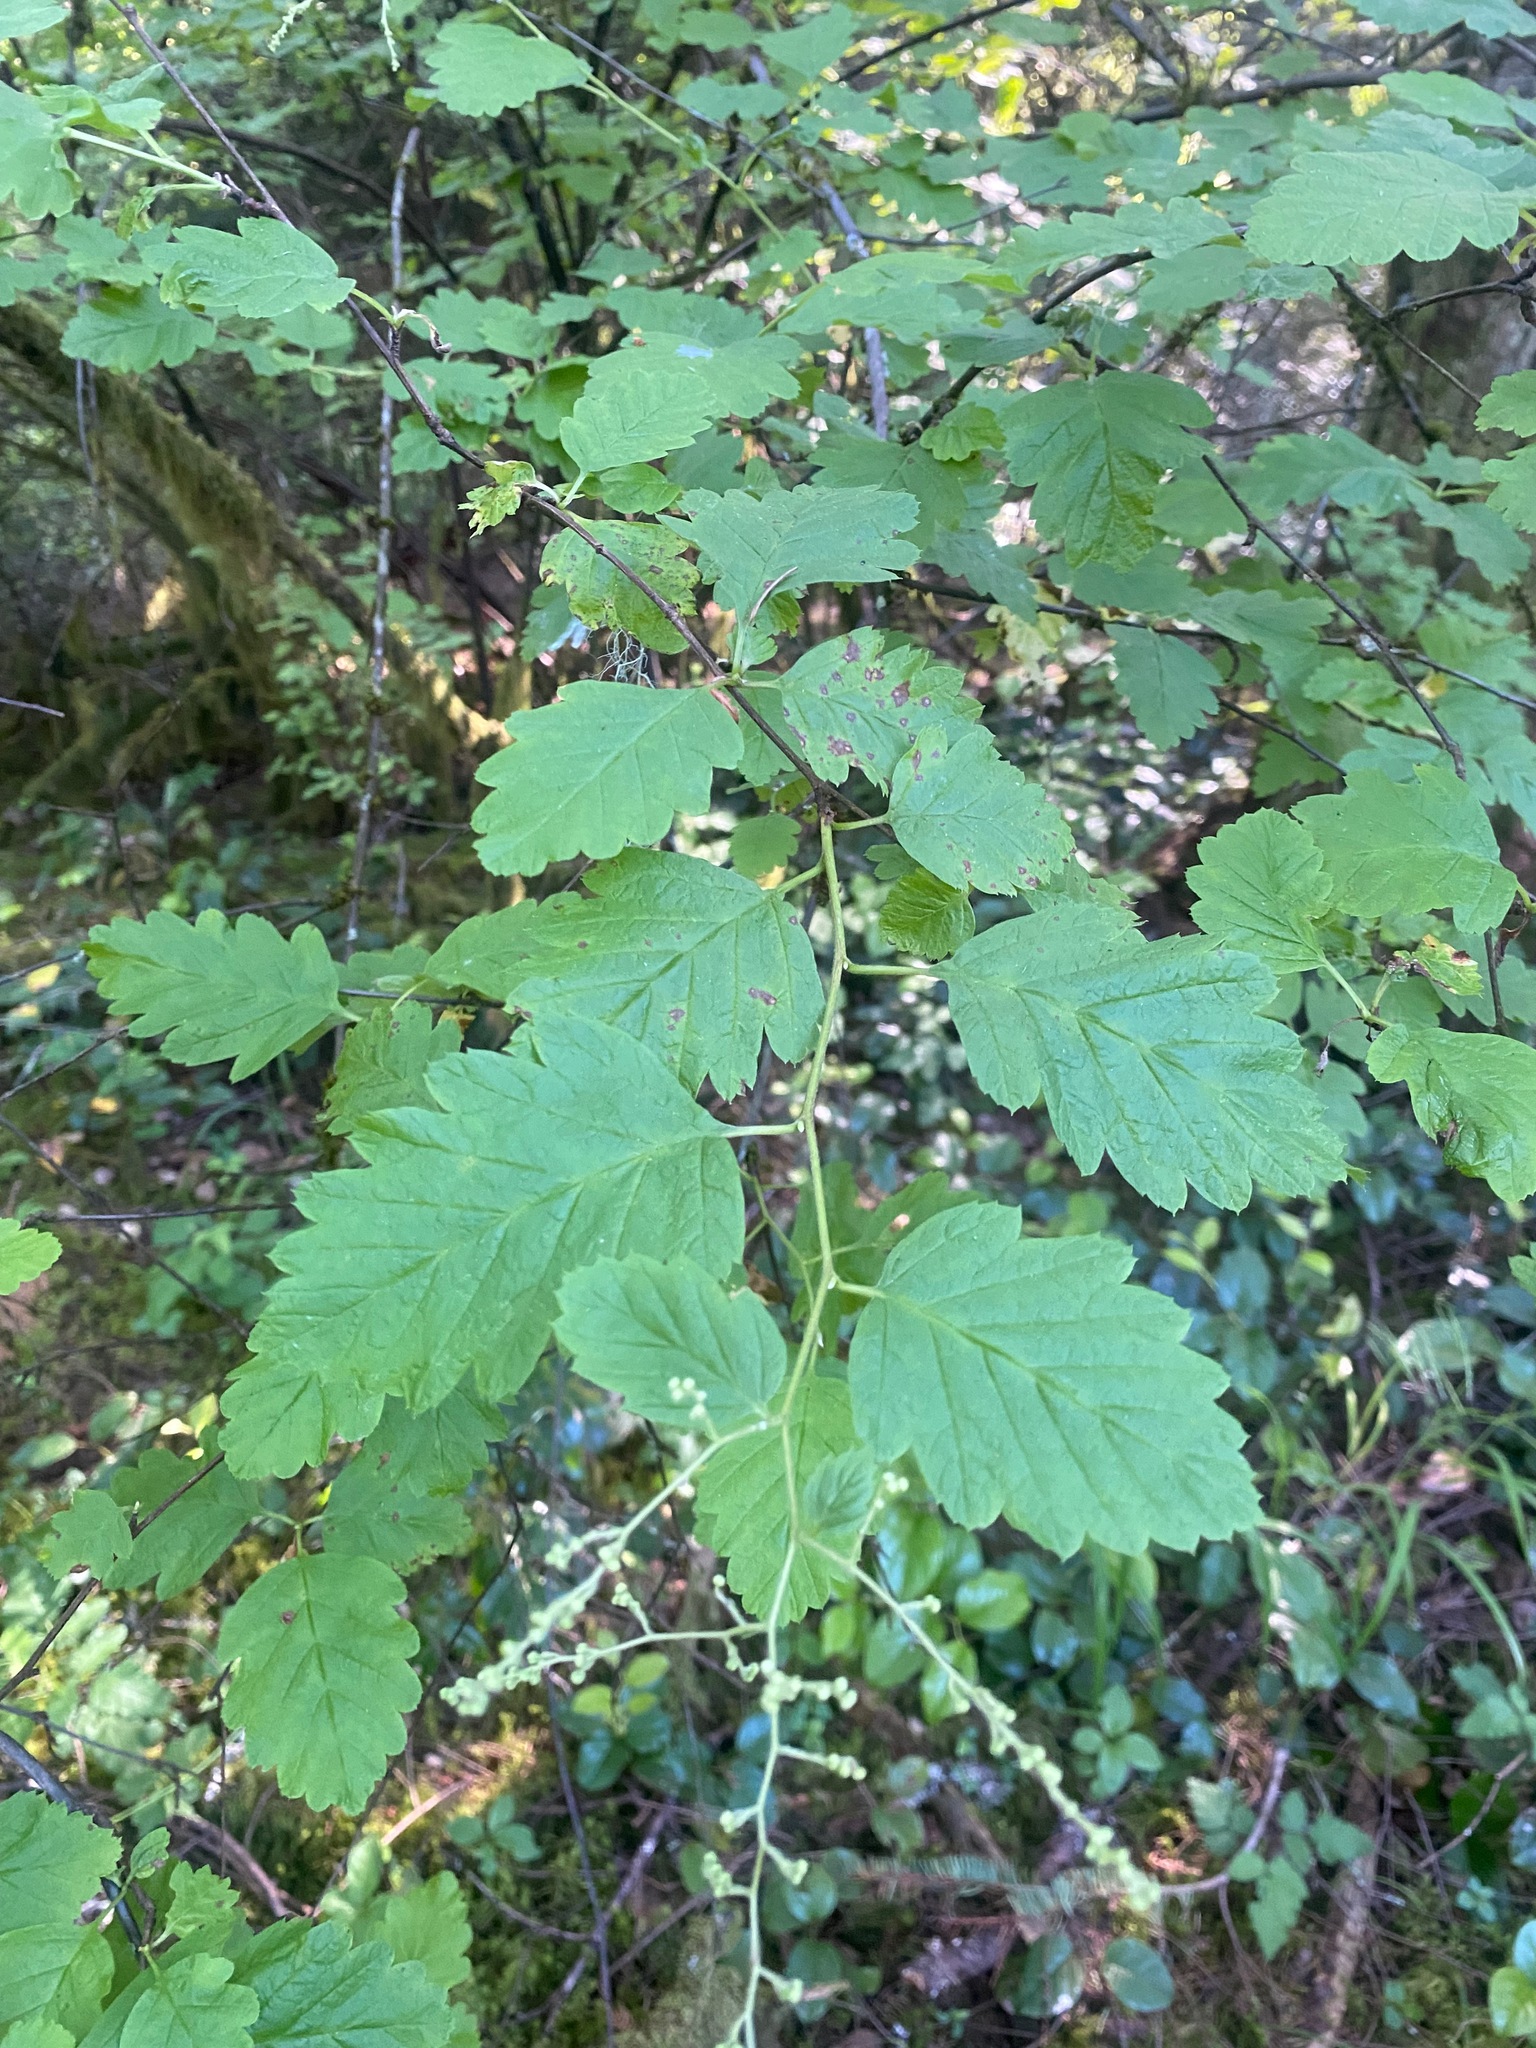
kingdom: Plantae
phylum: Tracheophyta
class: Magnoliopsida
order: Rosales
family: Rosaceae
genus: Holodiscus
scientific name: Holodiscus discolor
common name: Oceanspray
